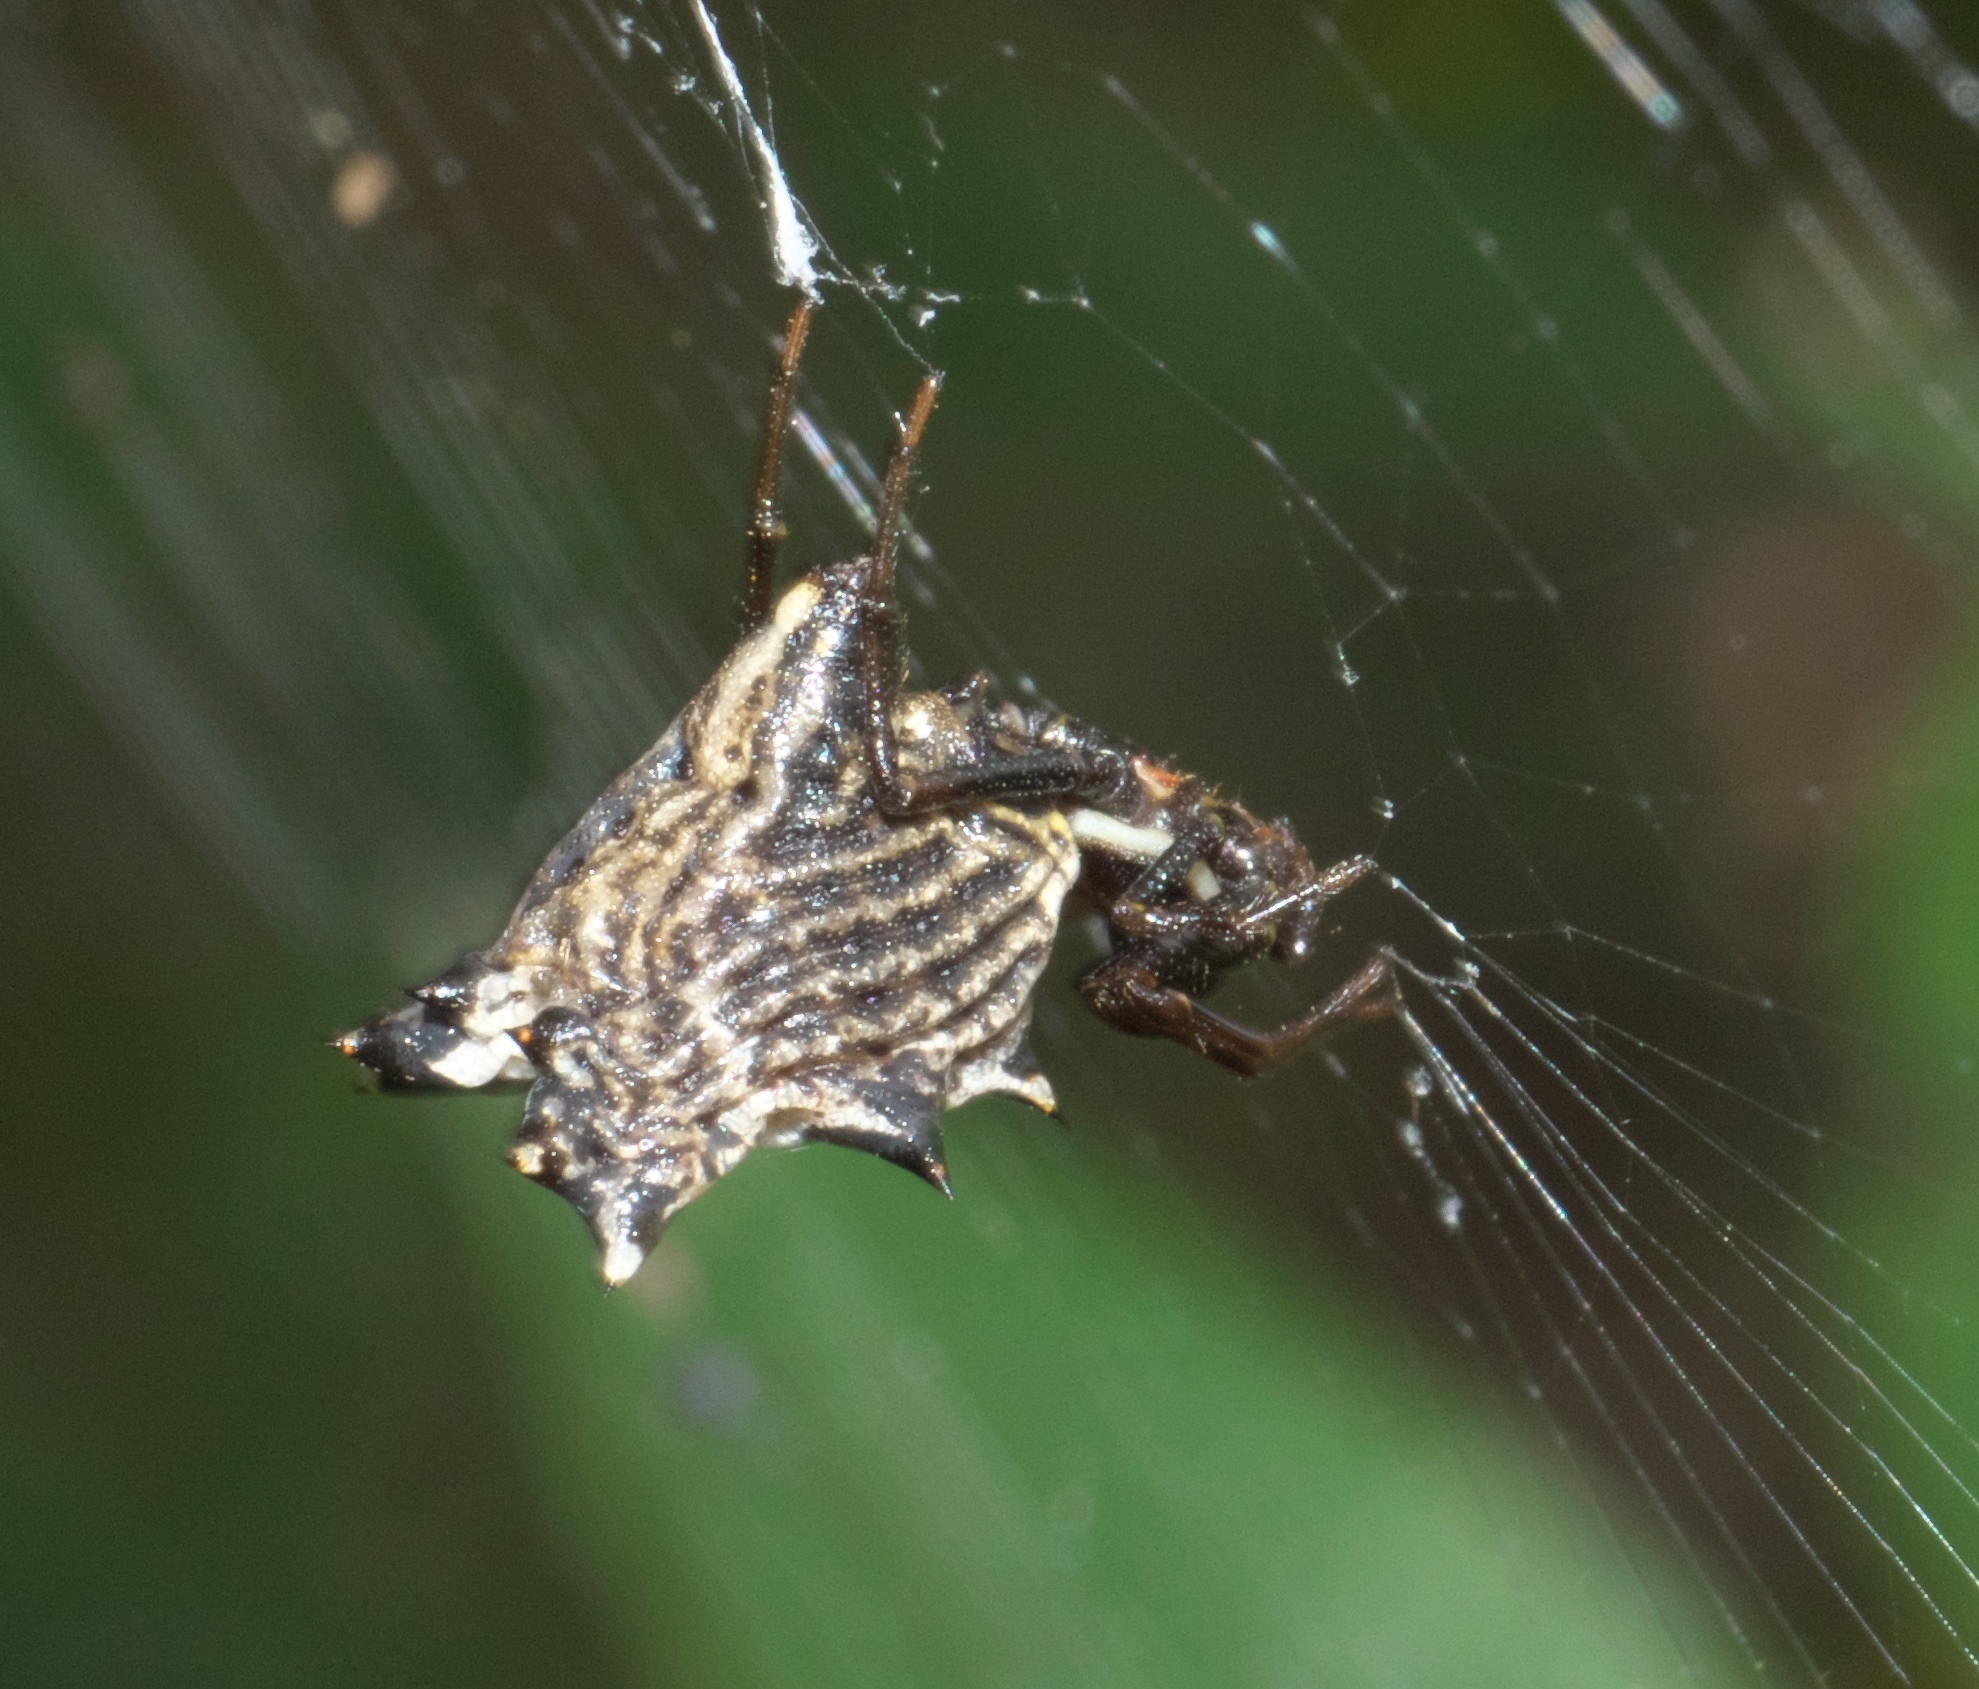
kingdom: Animalia
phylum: Arthropoda
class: Arachnida
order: Araneae
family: Araneidae
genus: Micrathena
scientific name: Micrathena gracilis
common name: Orb weavers
